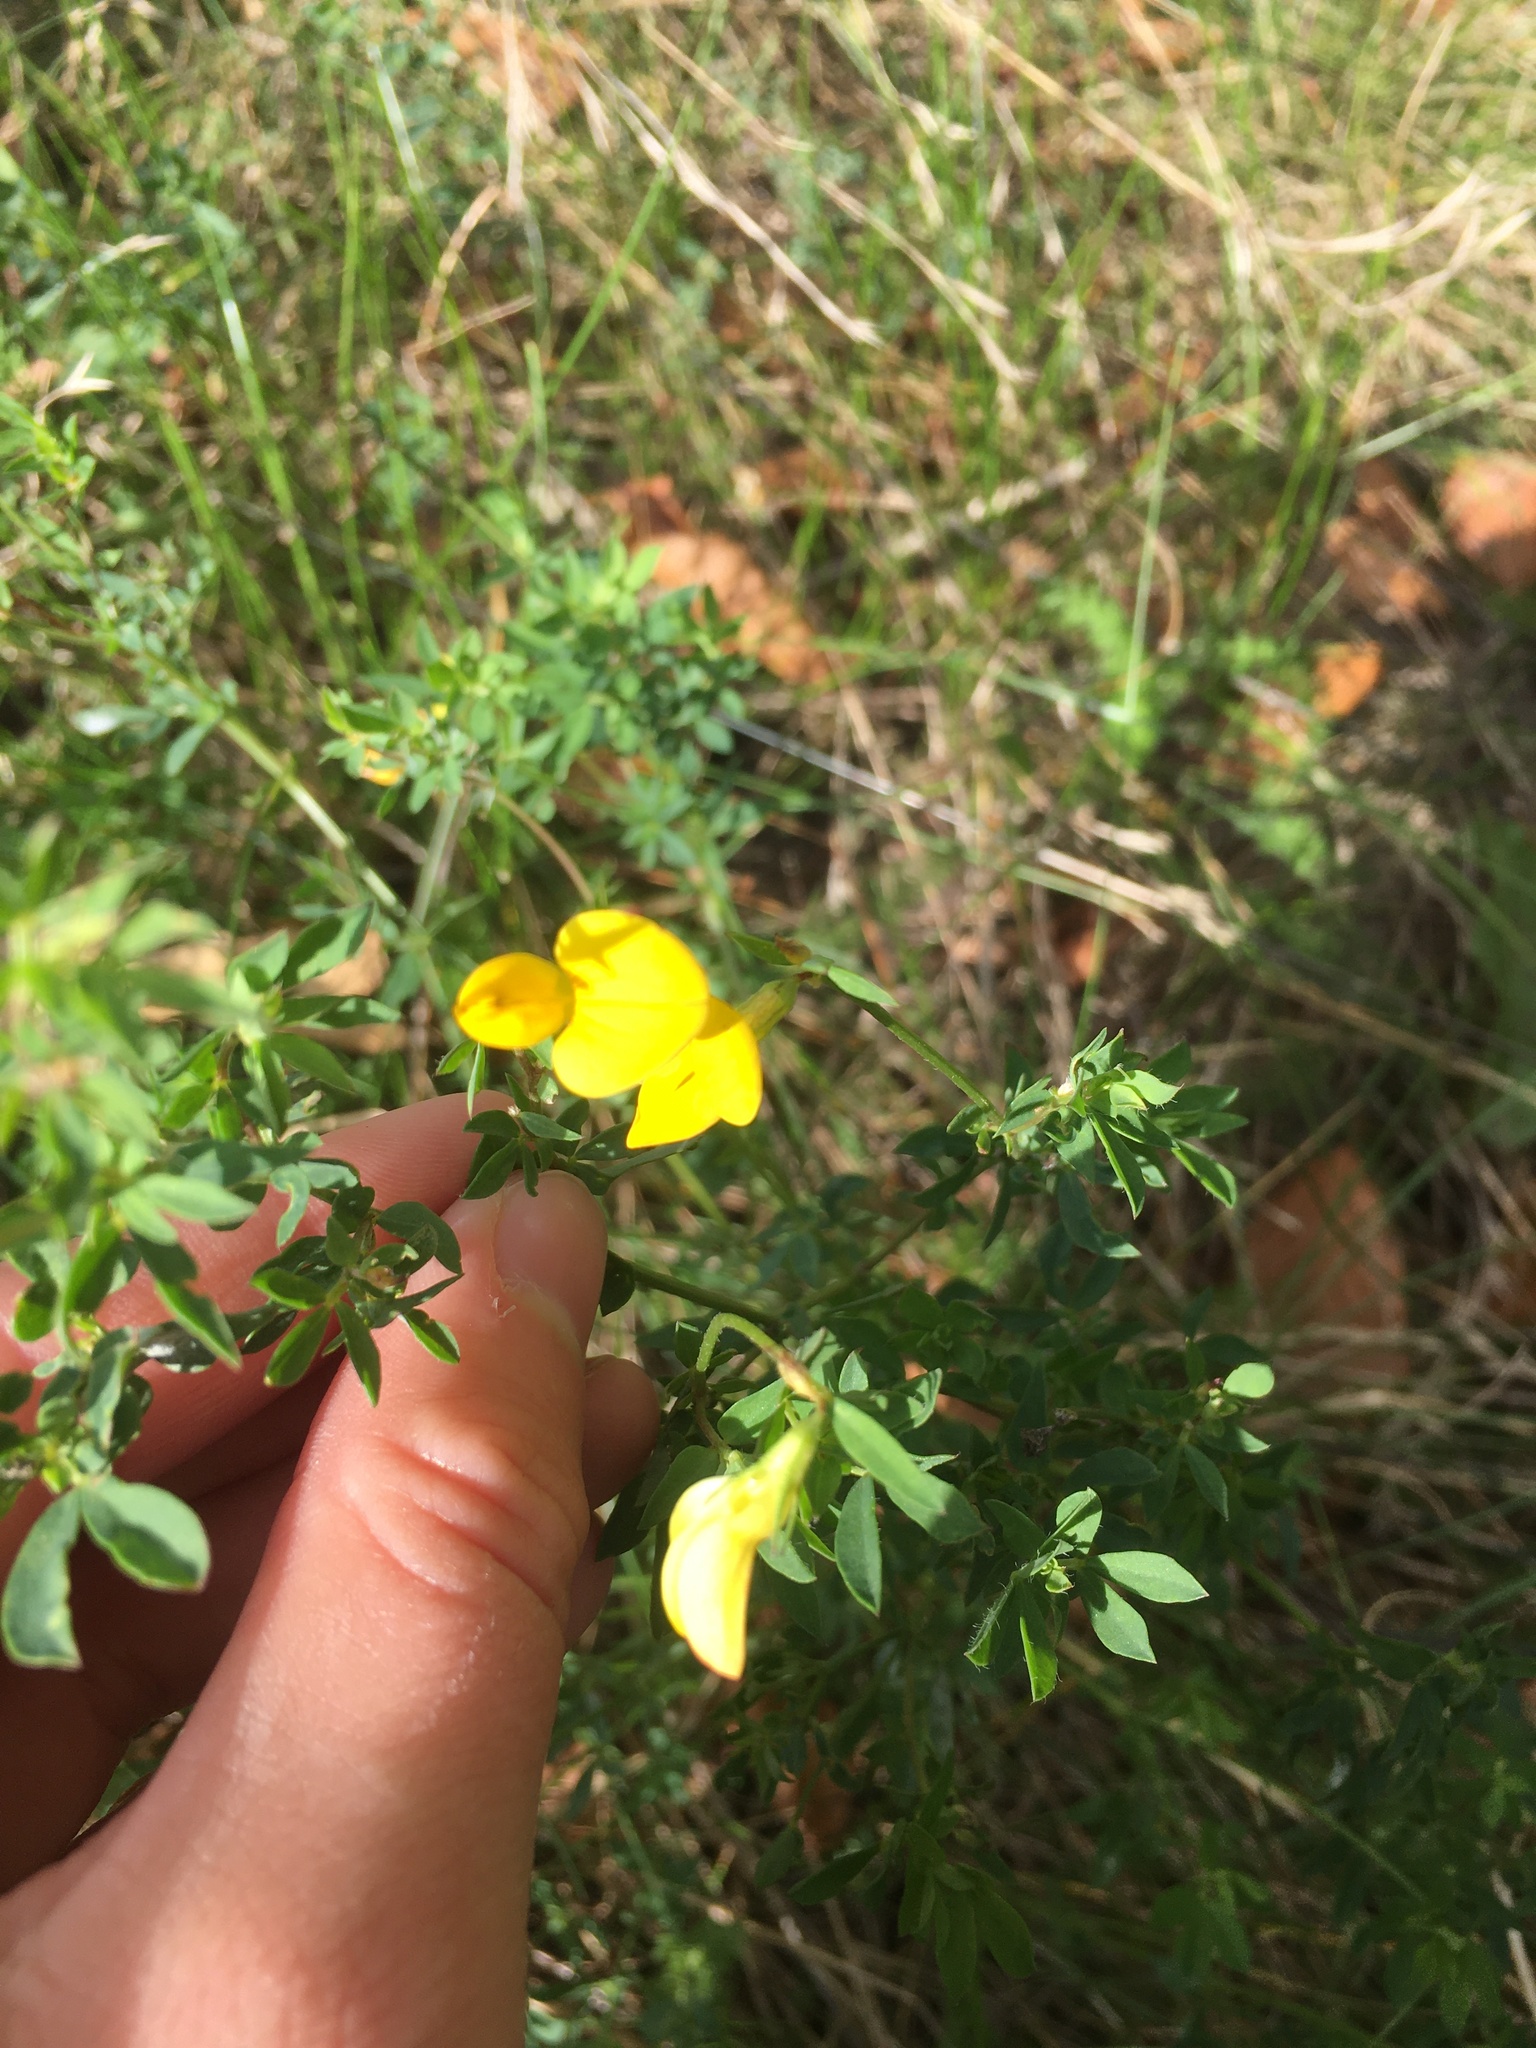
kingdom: Plantae
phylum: Tracheophyta
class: Magnoliopsida
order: Fabales
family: Fabaceae
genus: Lotus
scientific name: Lotus corniculatus
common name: Common bird's-foot-trefoil
